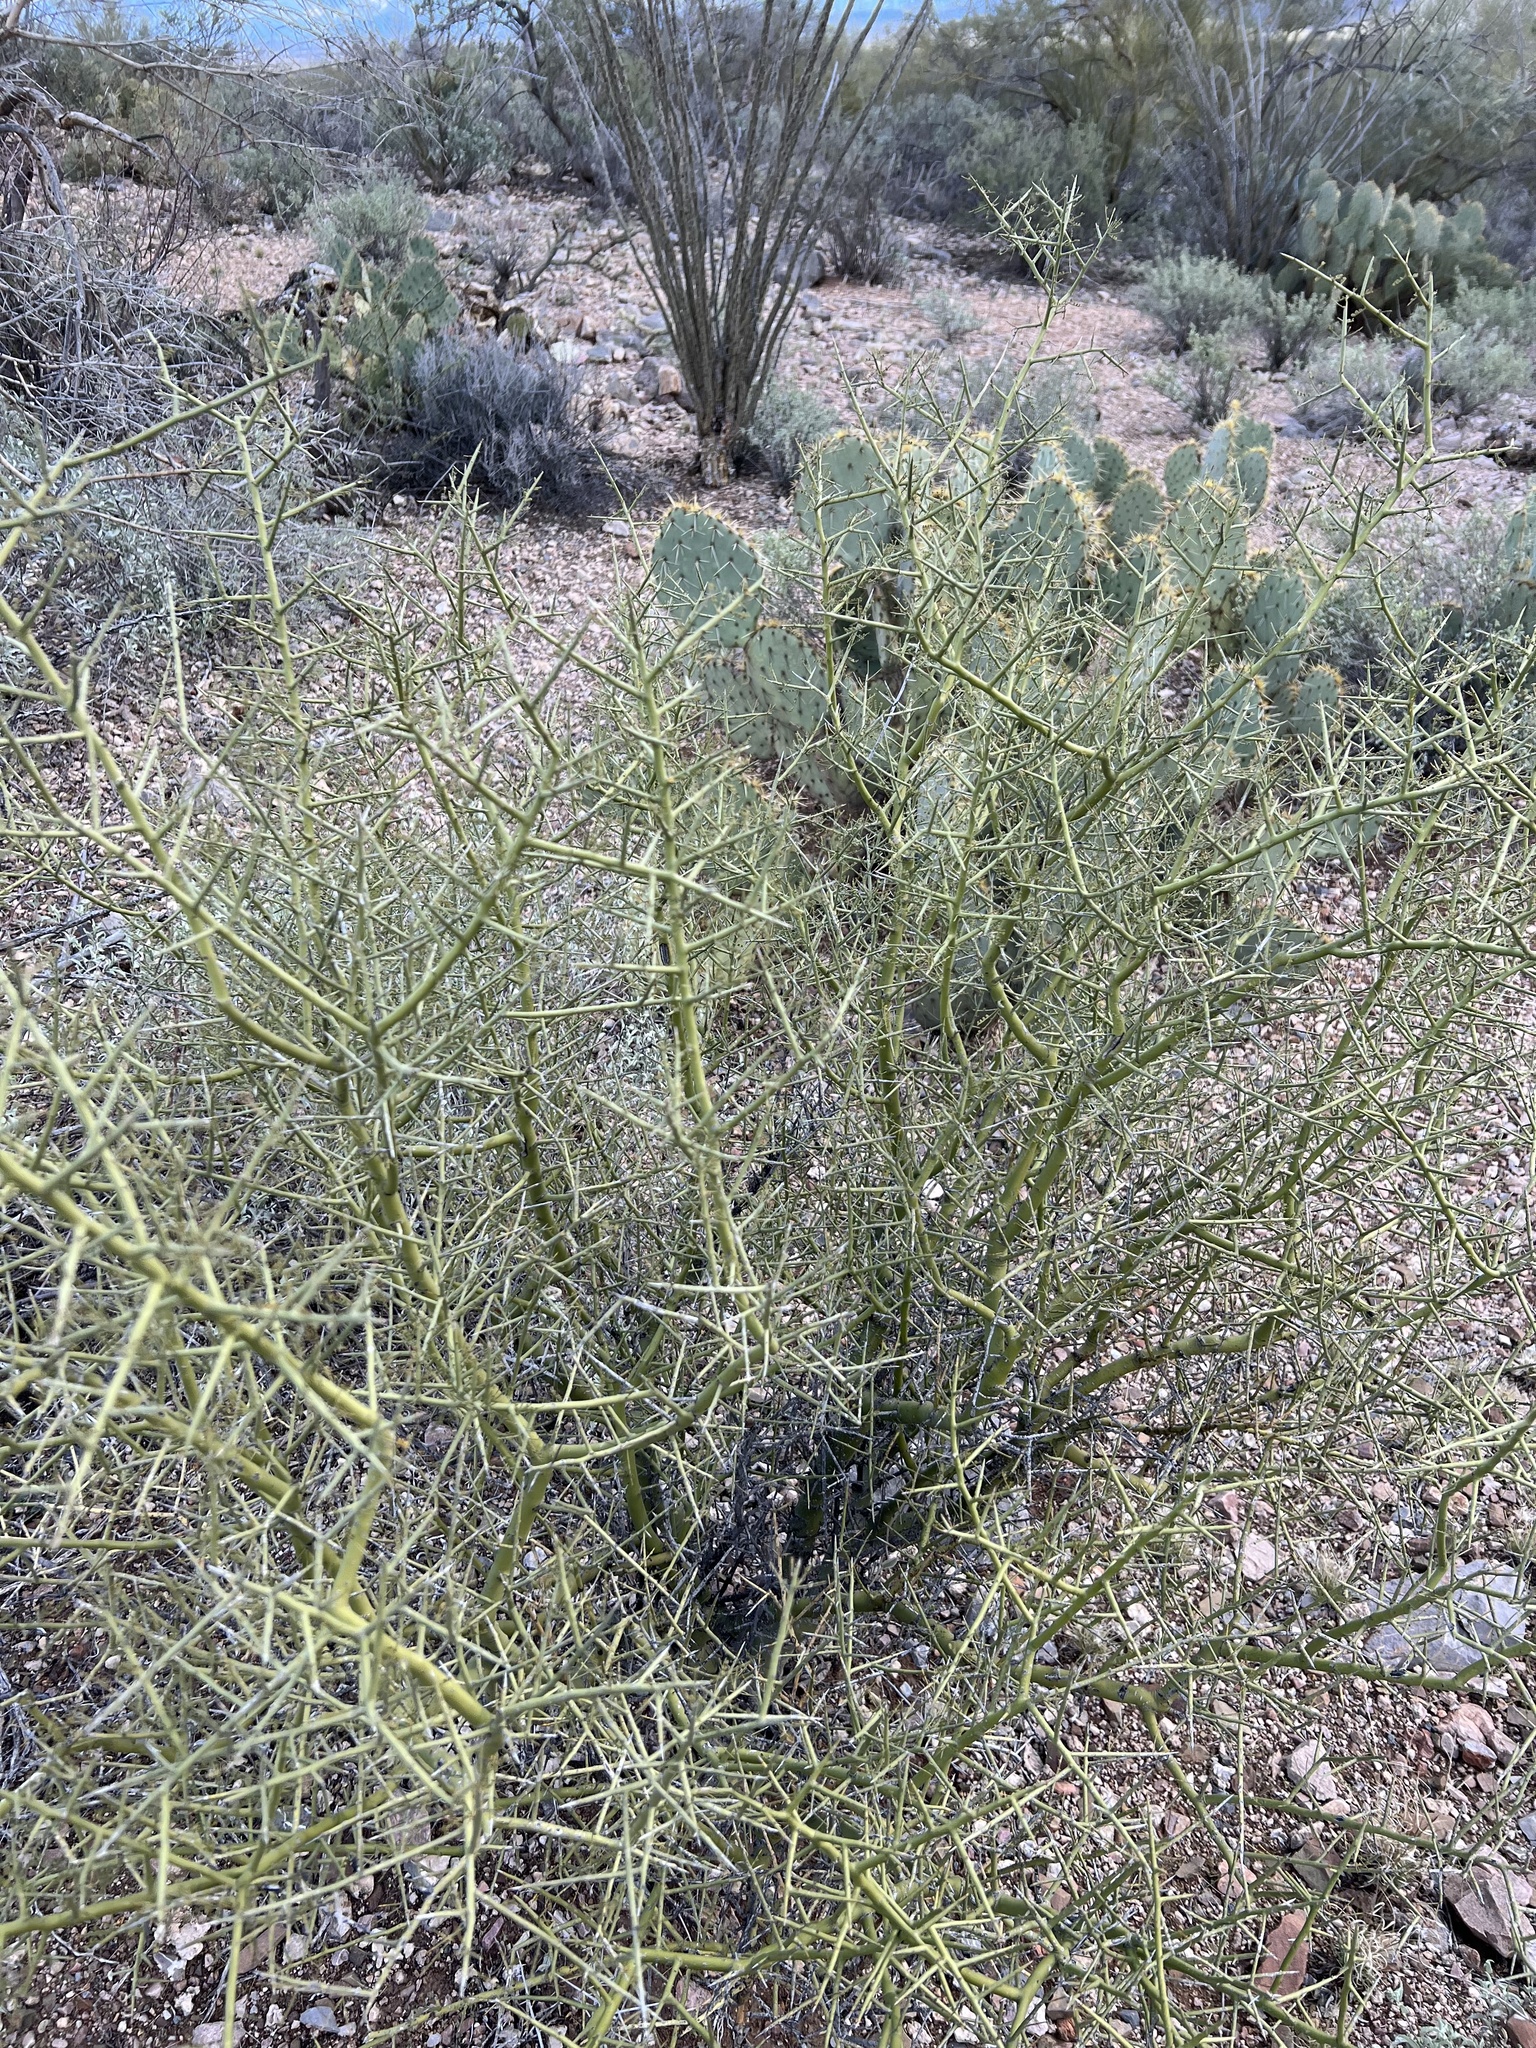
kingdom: Plantae
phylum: Tracheophyta
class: Magnoliopsida
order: Fabales
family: Fabaceae
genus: Parkinsonia
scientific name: Parkinsonia microphylla
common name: Yellow paloverde
